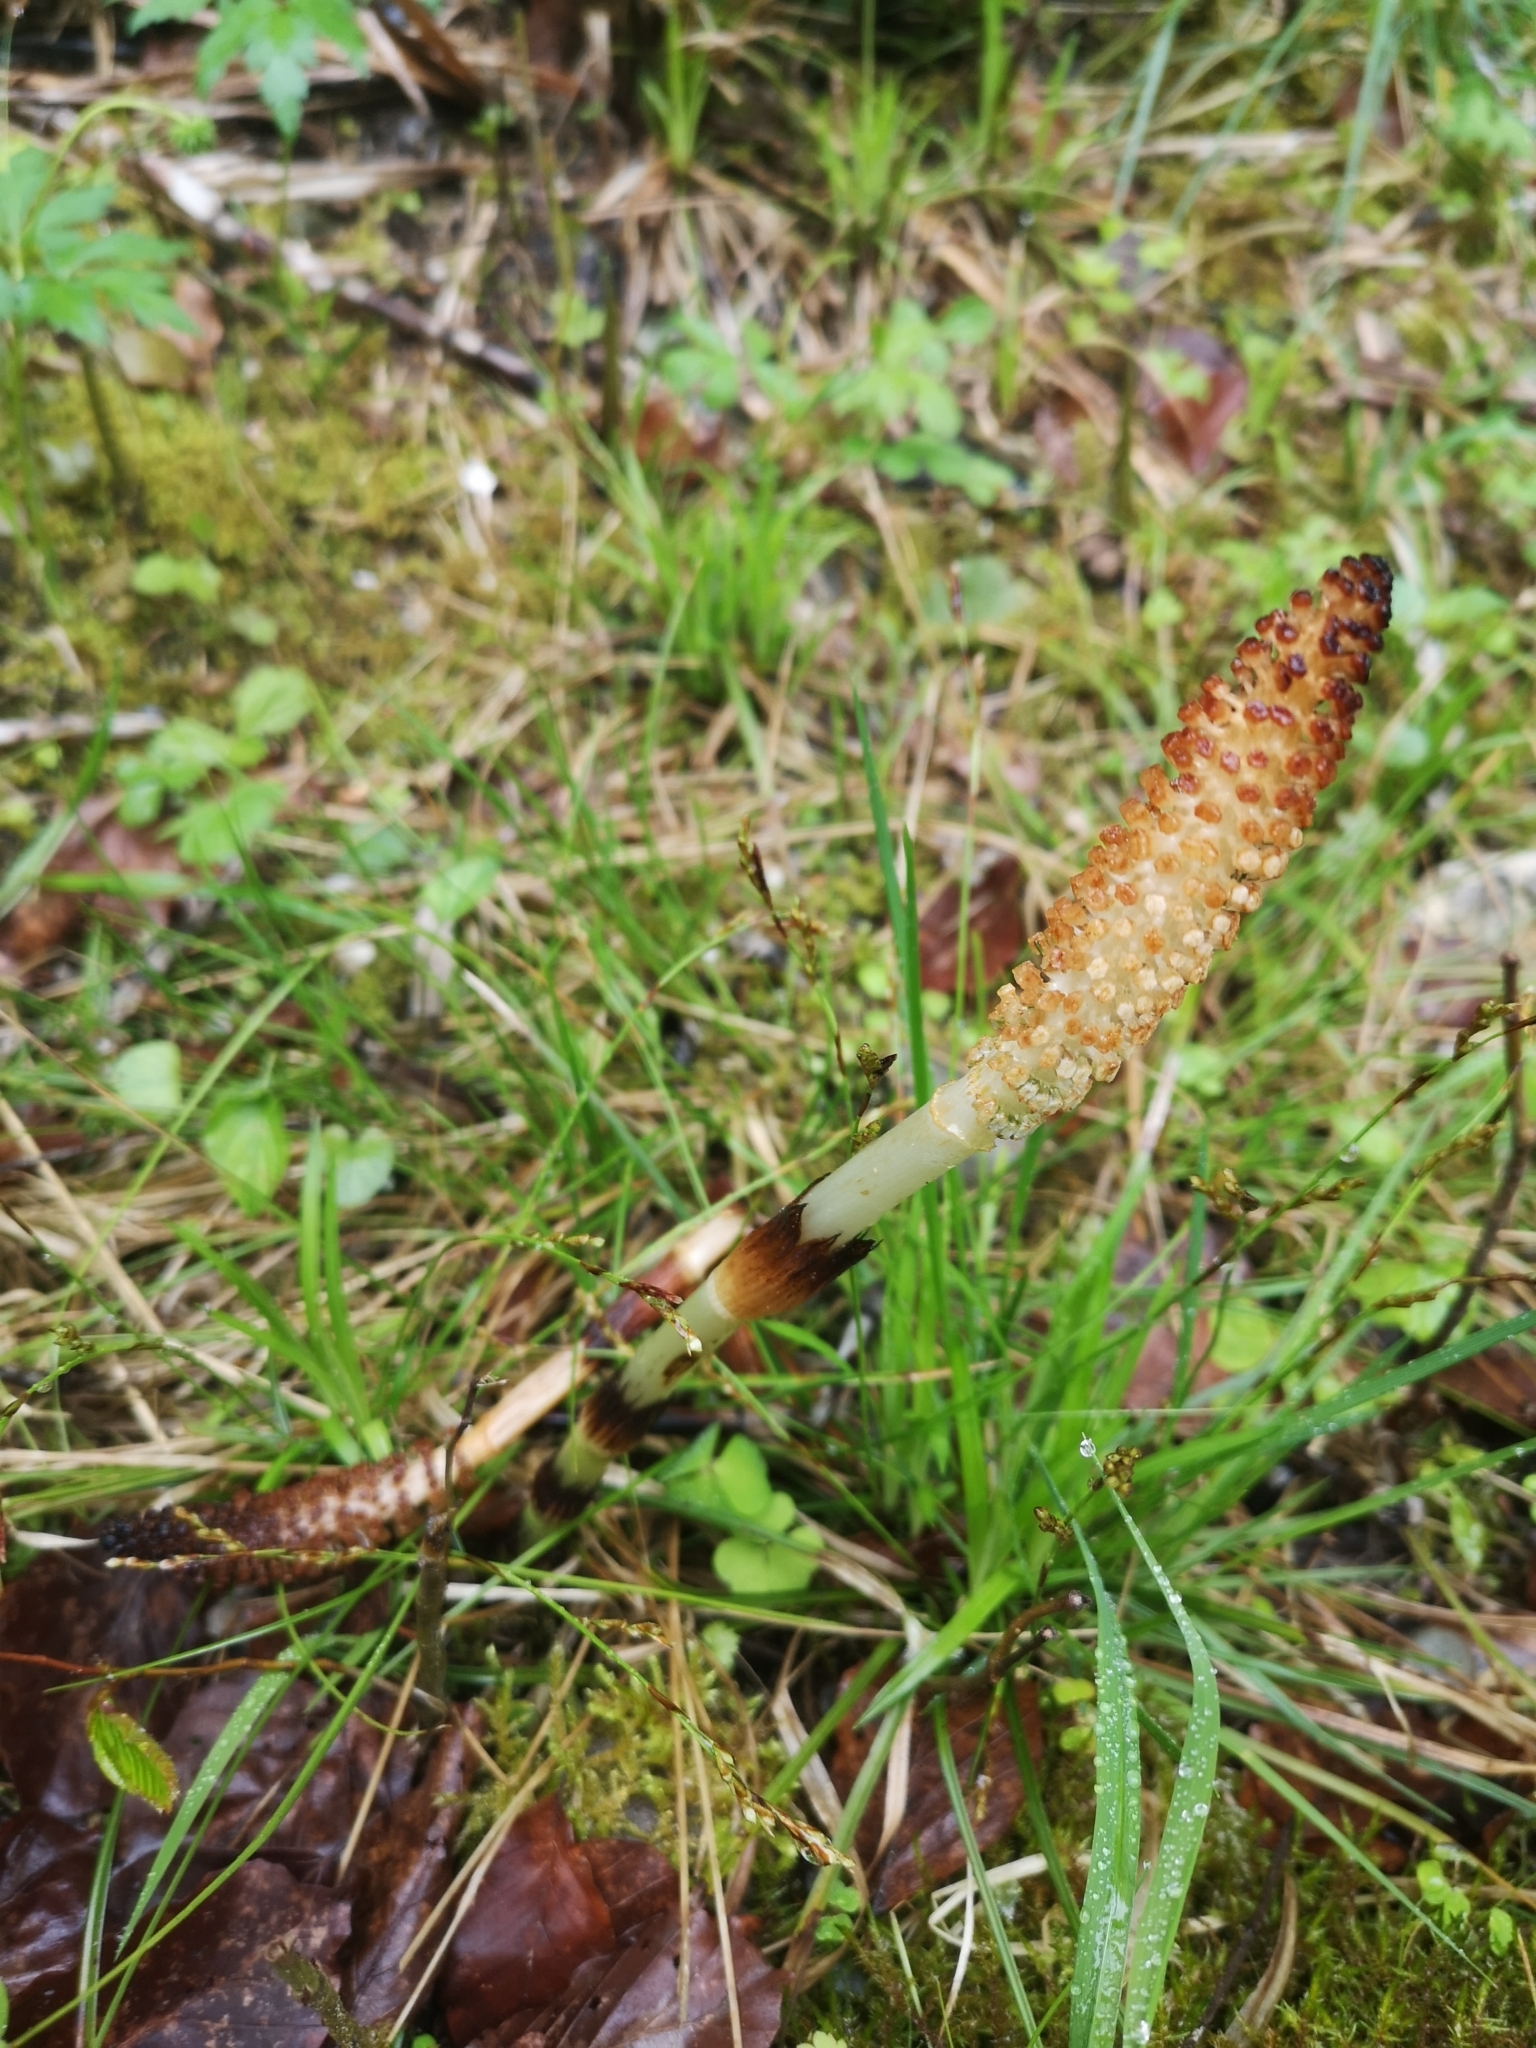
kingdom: Plantae
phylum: Tracheophyta
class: Polypodiopsida
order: Equisetales
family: Equisetaceae
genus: Equisetum
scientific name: Equisetum telmateia
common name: Great horsetail
